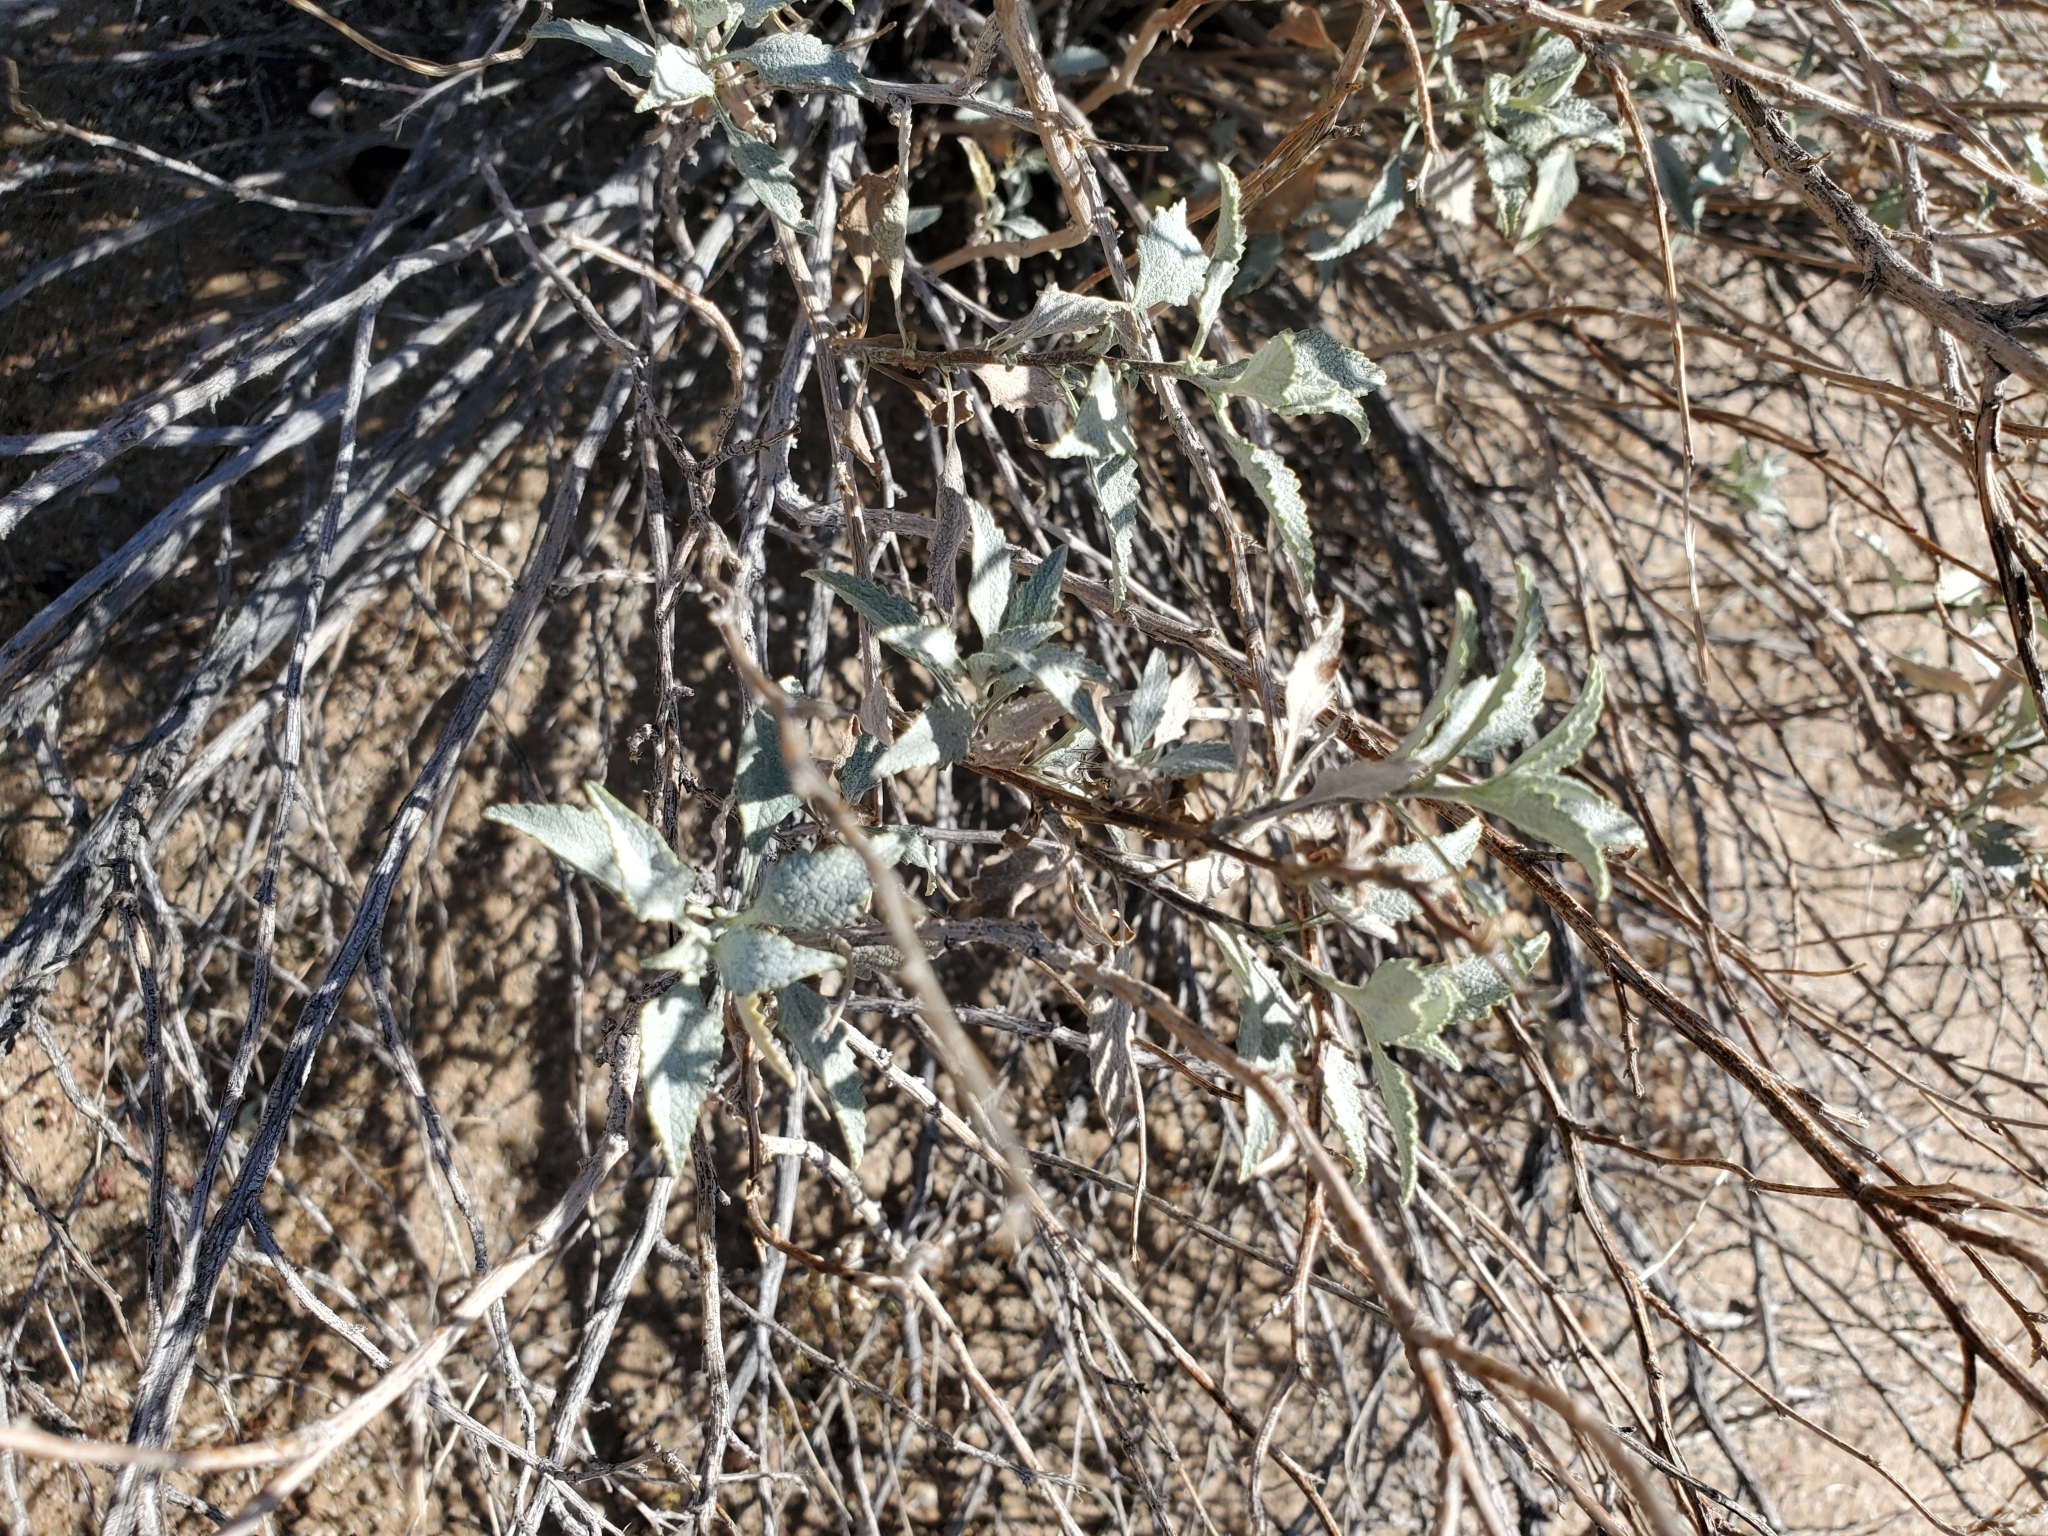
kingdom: Plantae
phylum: Tracheophyta
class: Magnoliopsida
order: Asterales
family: Asteraceae
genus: Ambrosia
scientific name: Ambrosia deltoidea
